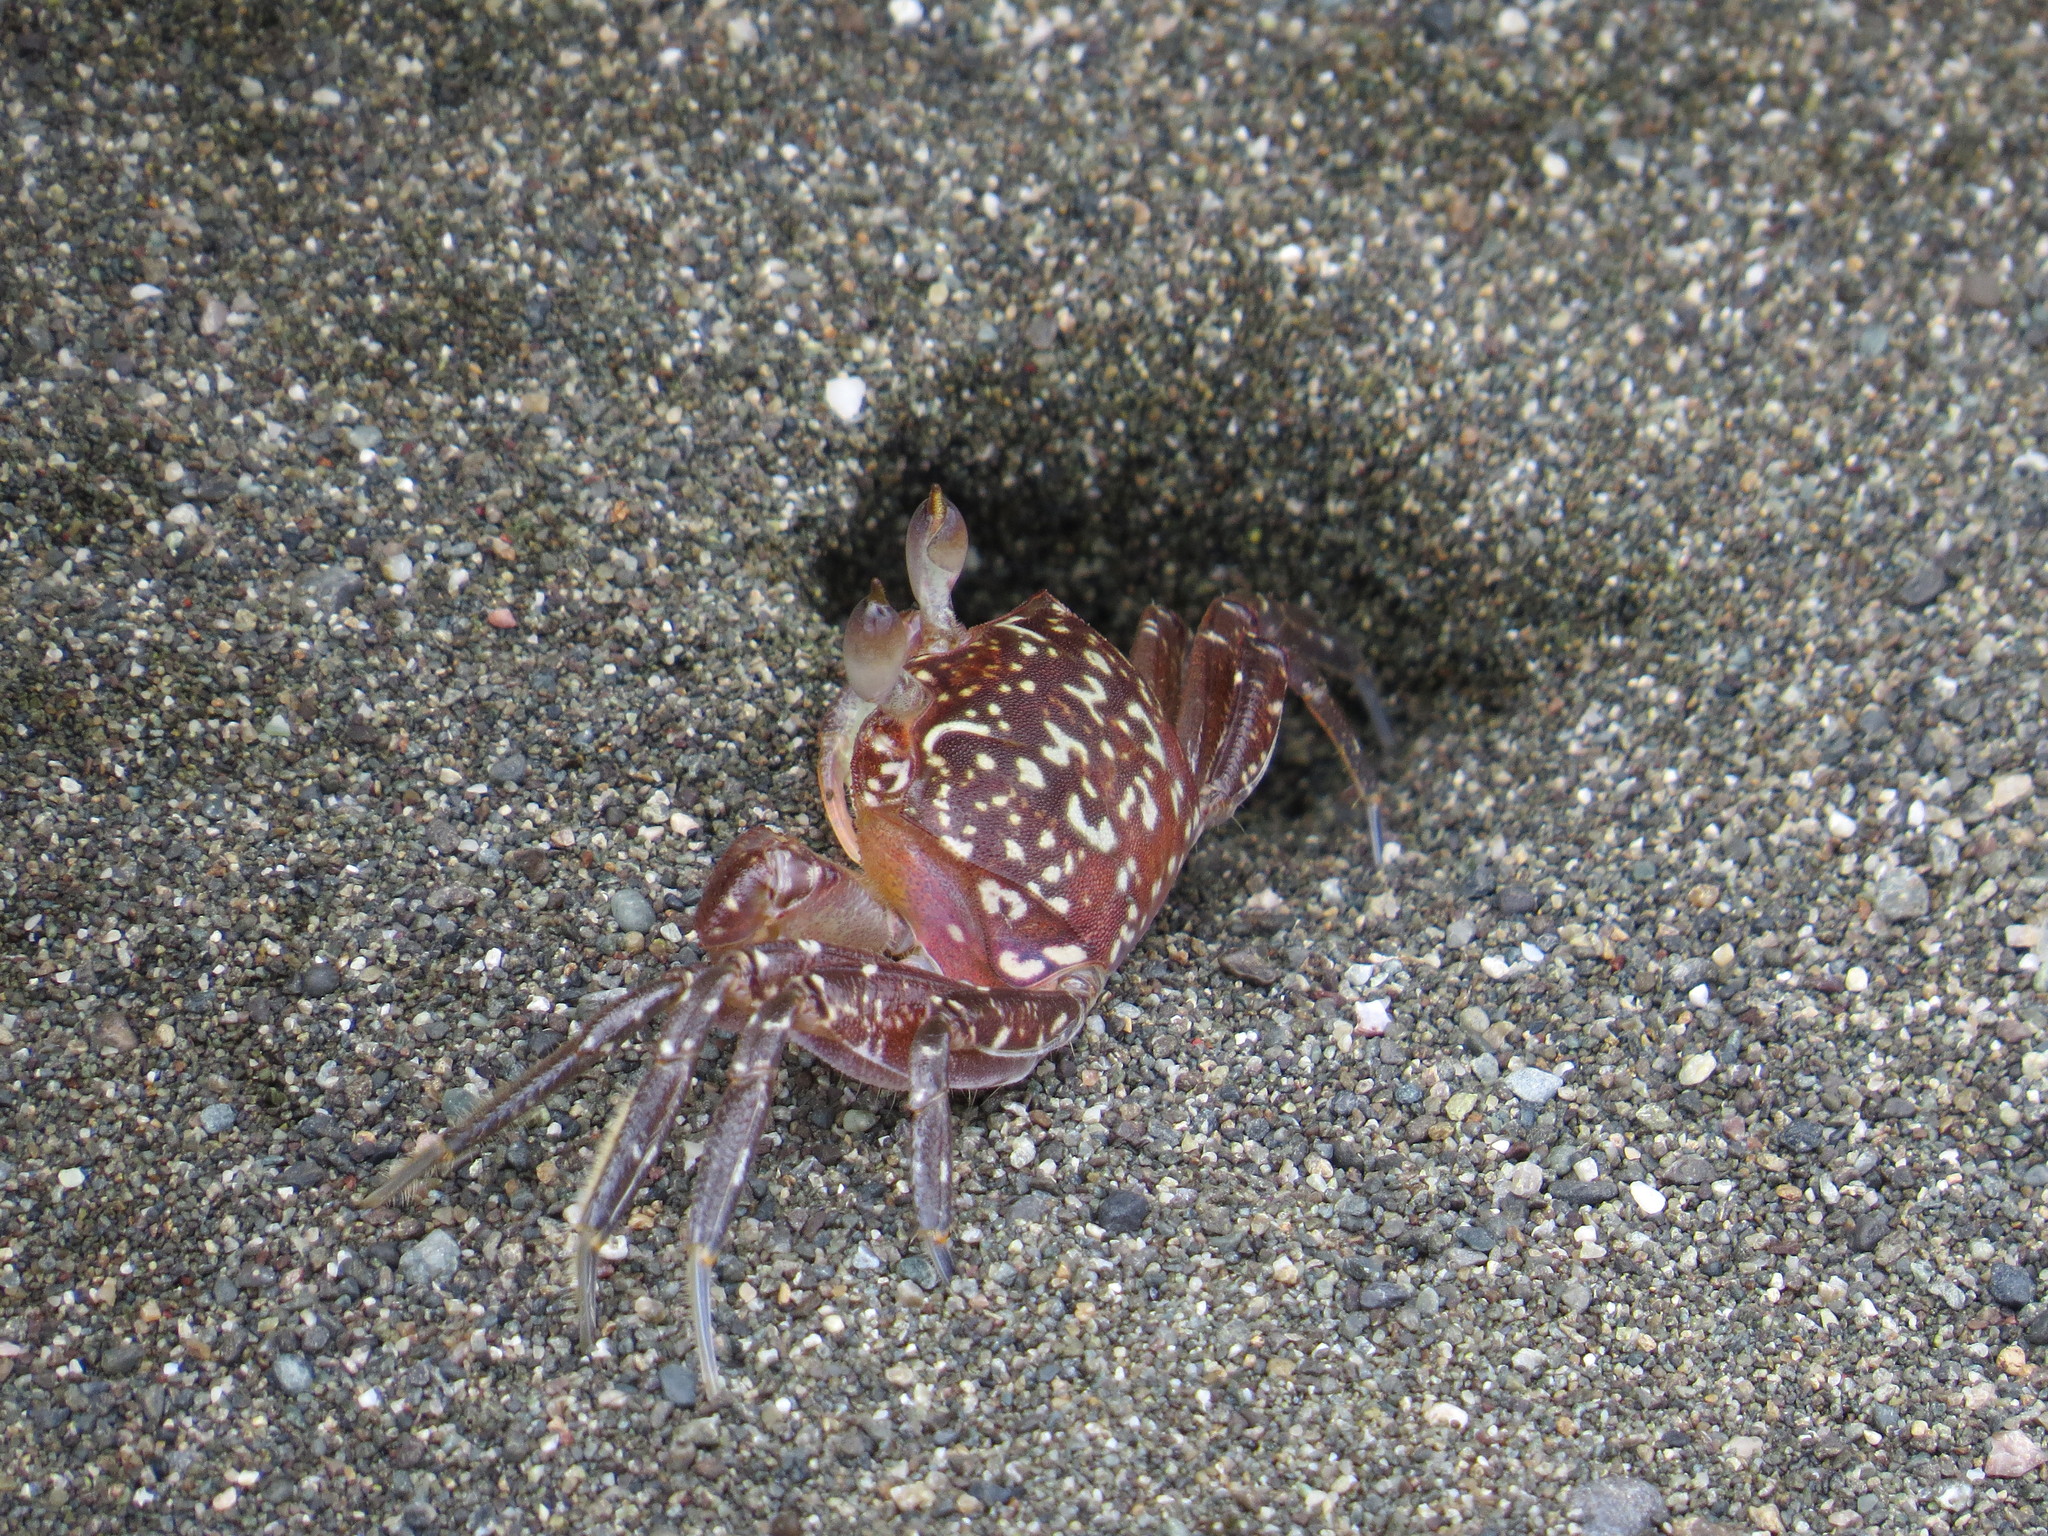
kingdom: Animalia
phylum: Arthropoda
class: Malacostraca
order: Decapoda
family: Ocypodidae
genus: Ocypode
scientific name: Ocypode gaudichaudii
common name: Pacific ghost crab
